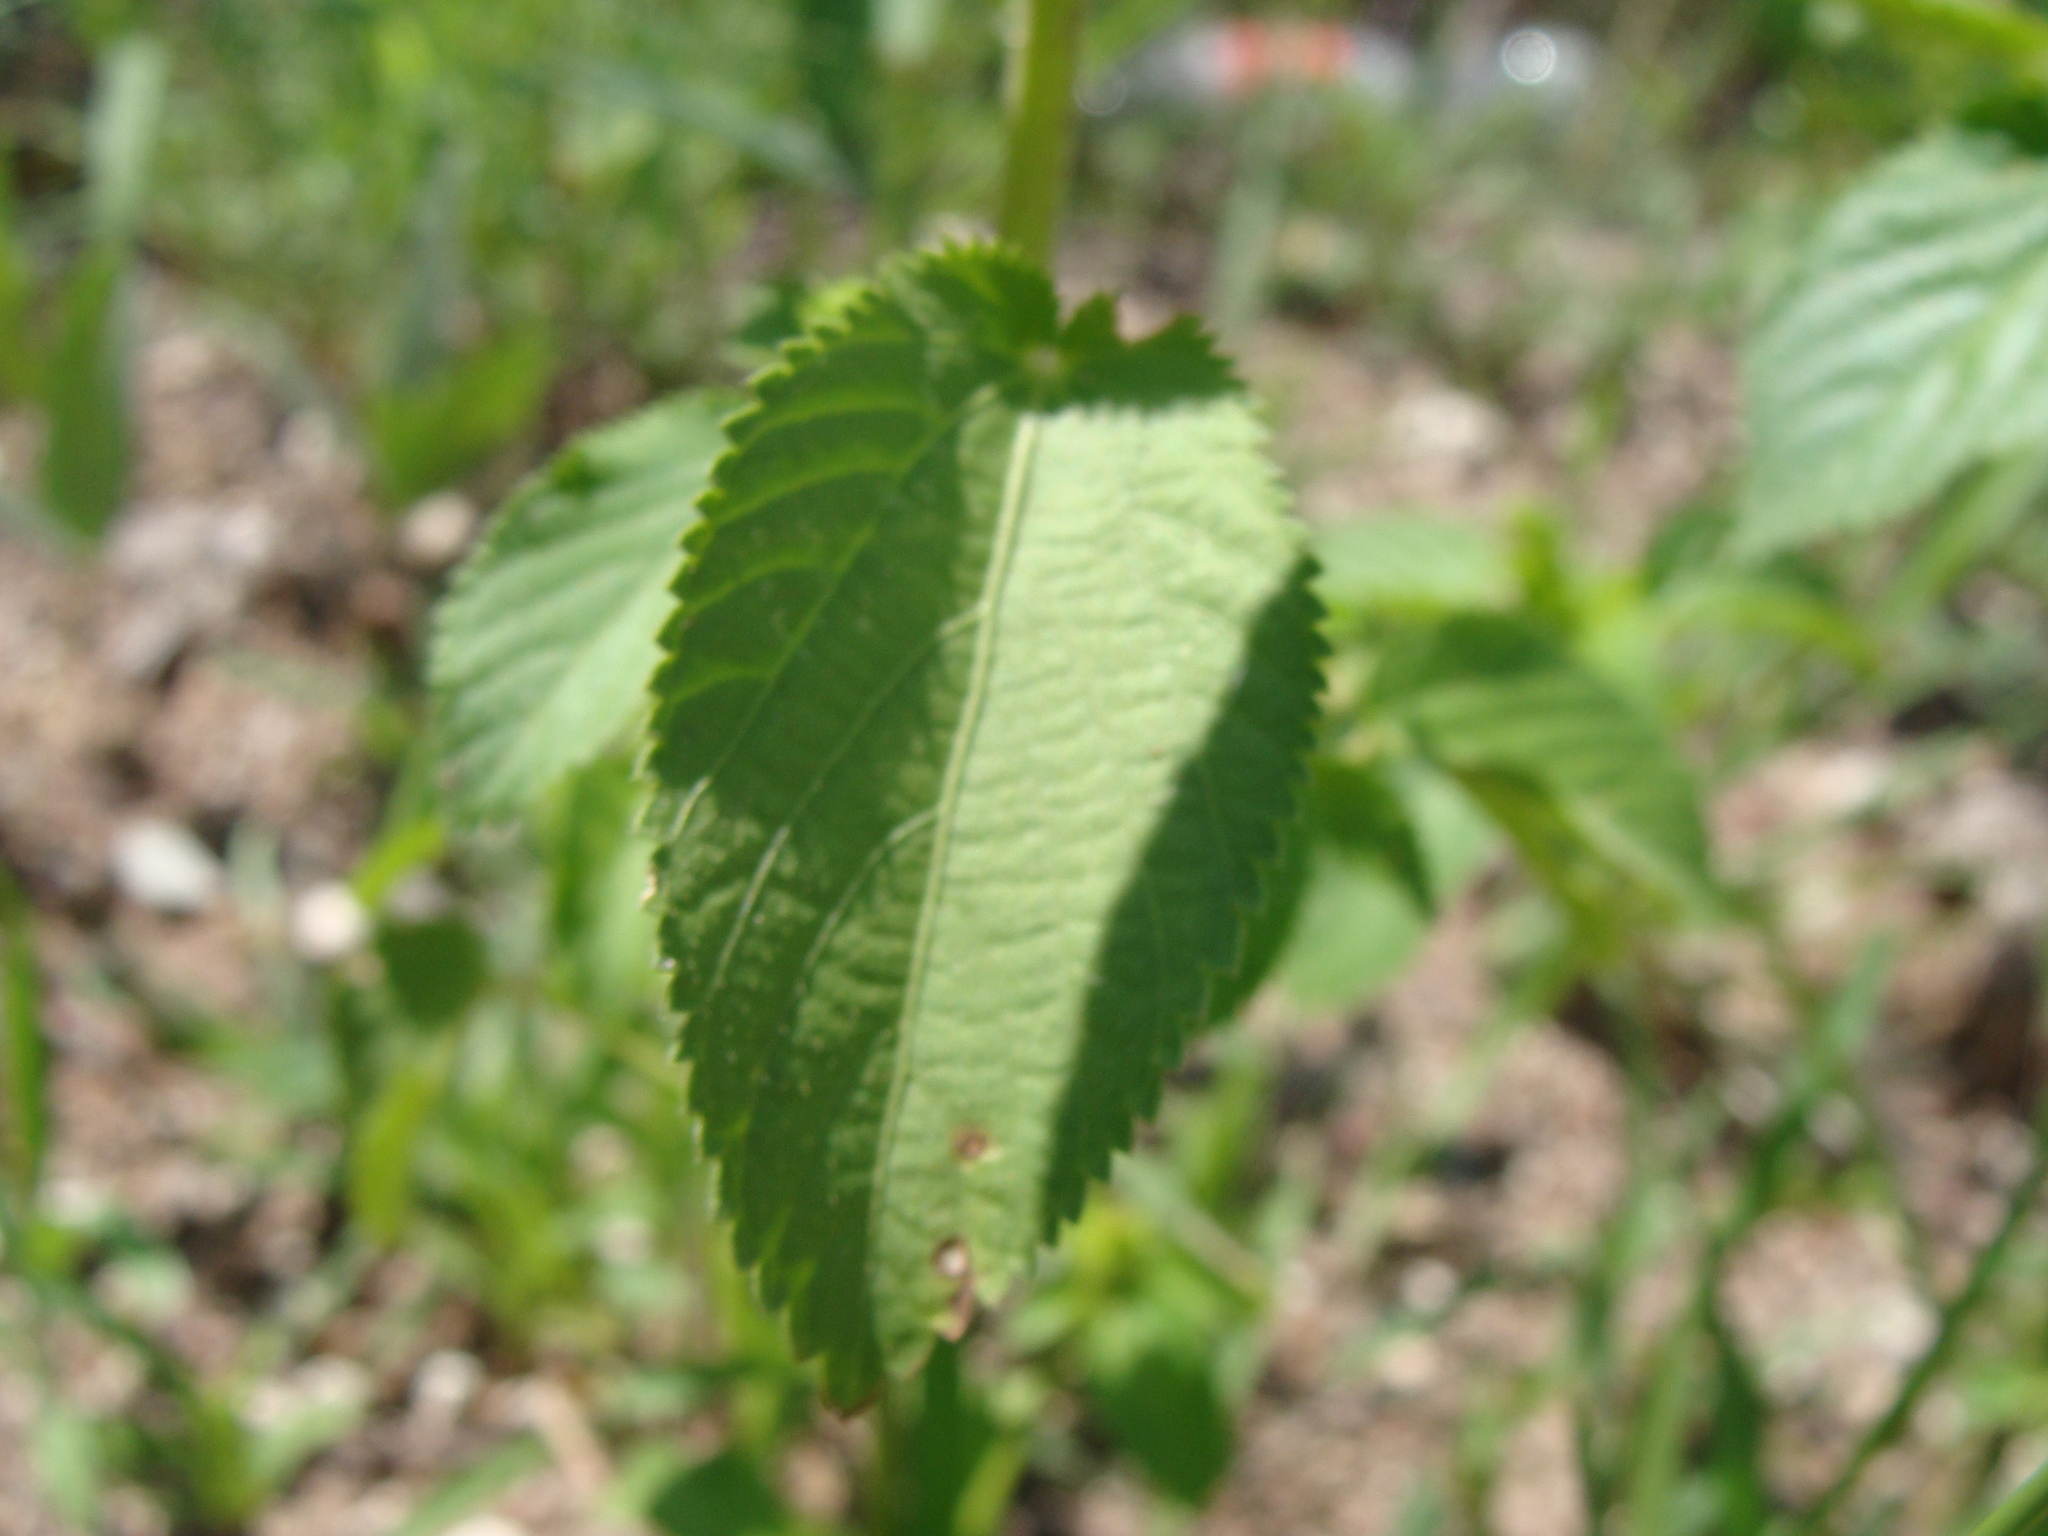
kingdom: Plantae
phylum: Tracheophyta
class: Magnoliopsida
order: Malpighiales
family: Euphorbiaceae
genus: Acalypha
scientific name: Acalypha ostryifolia
